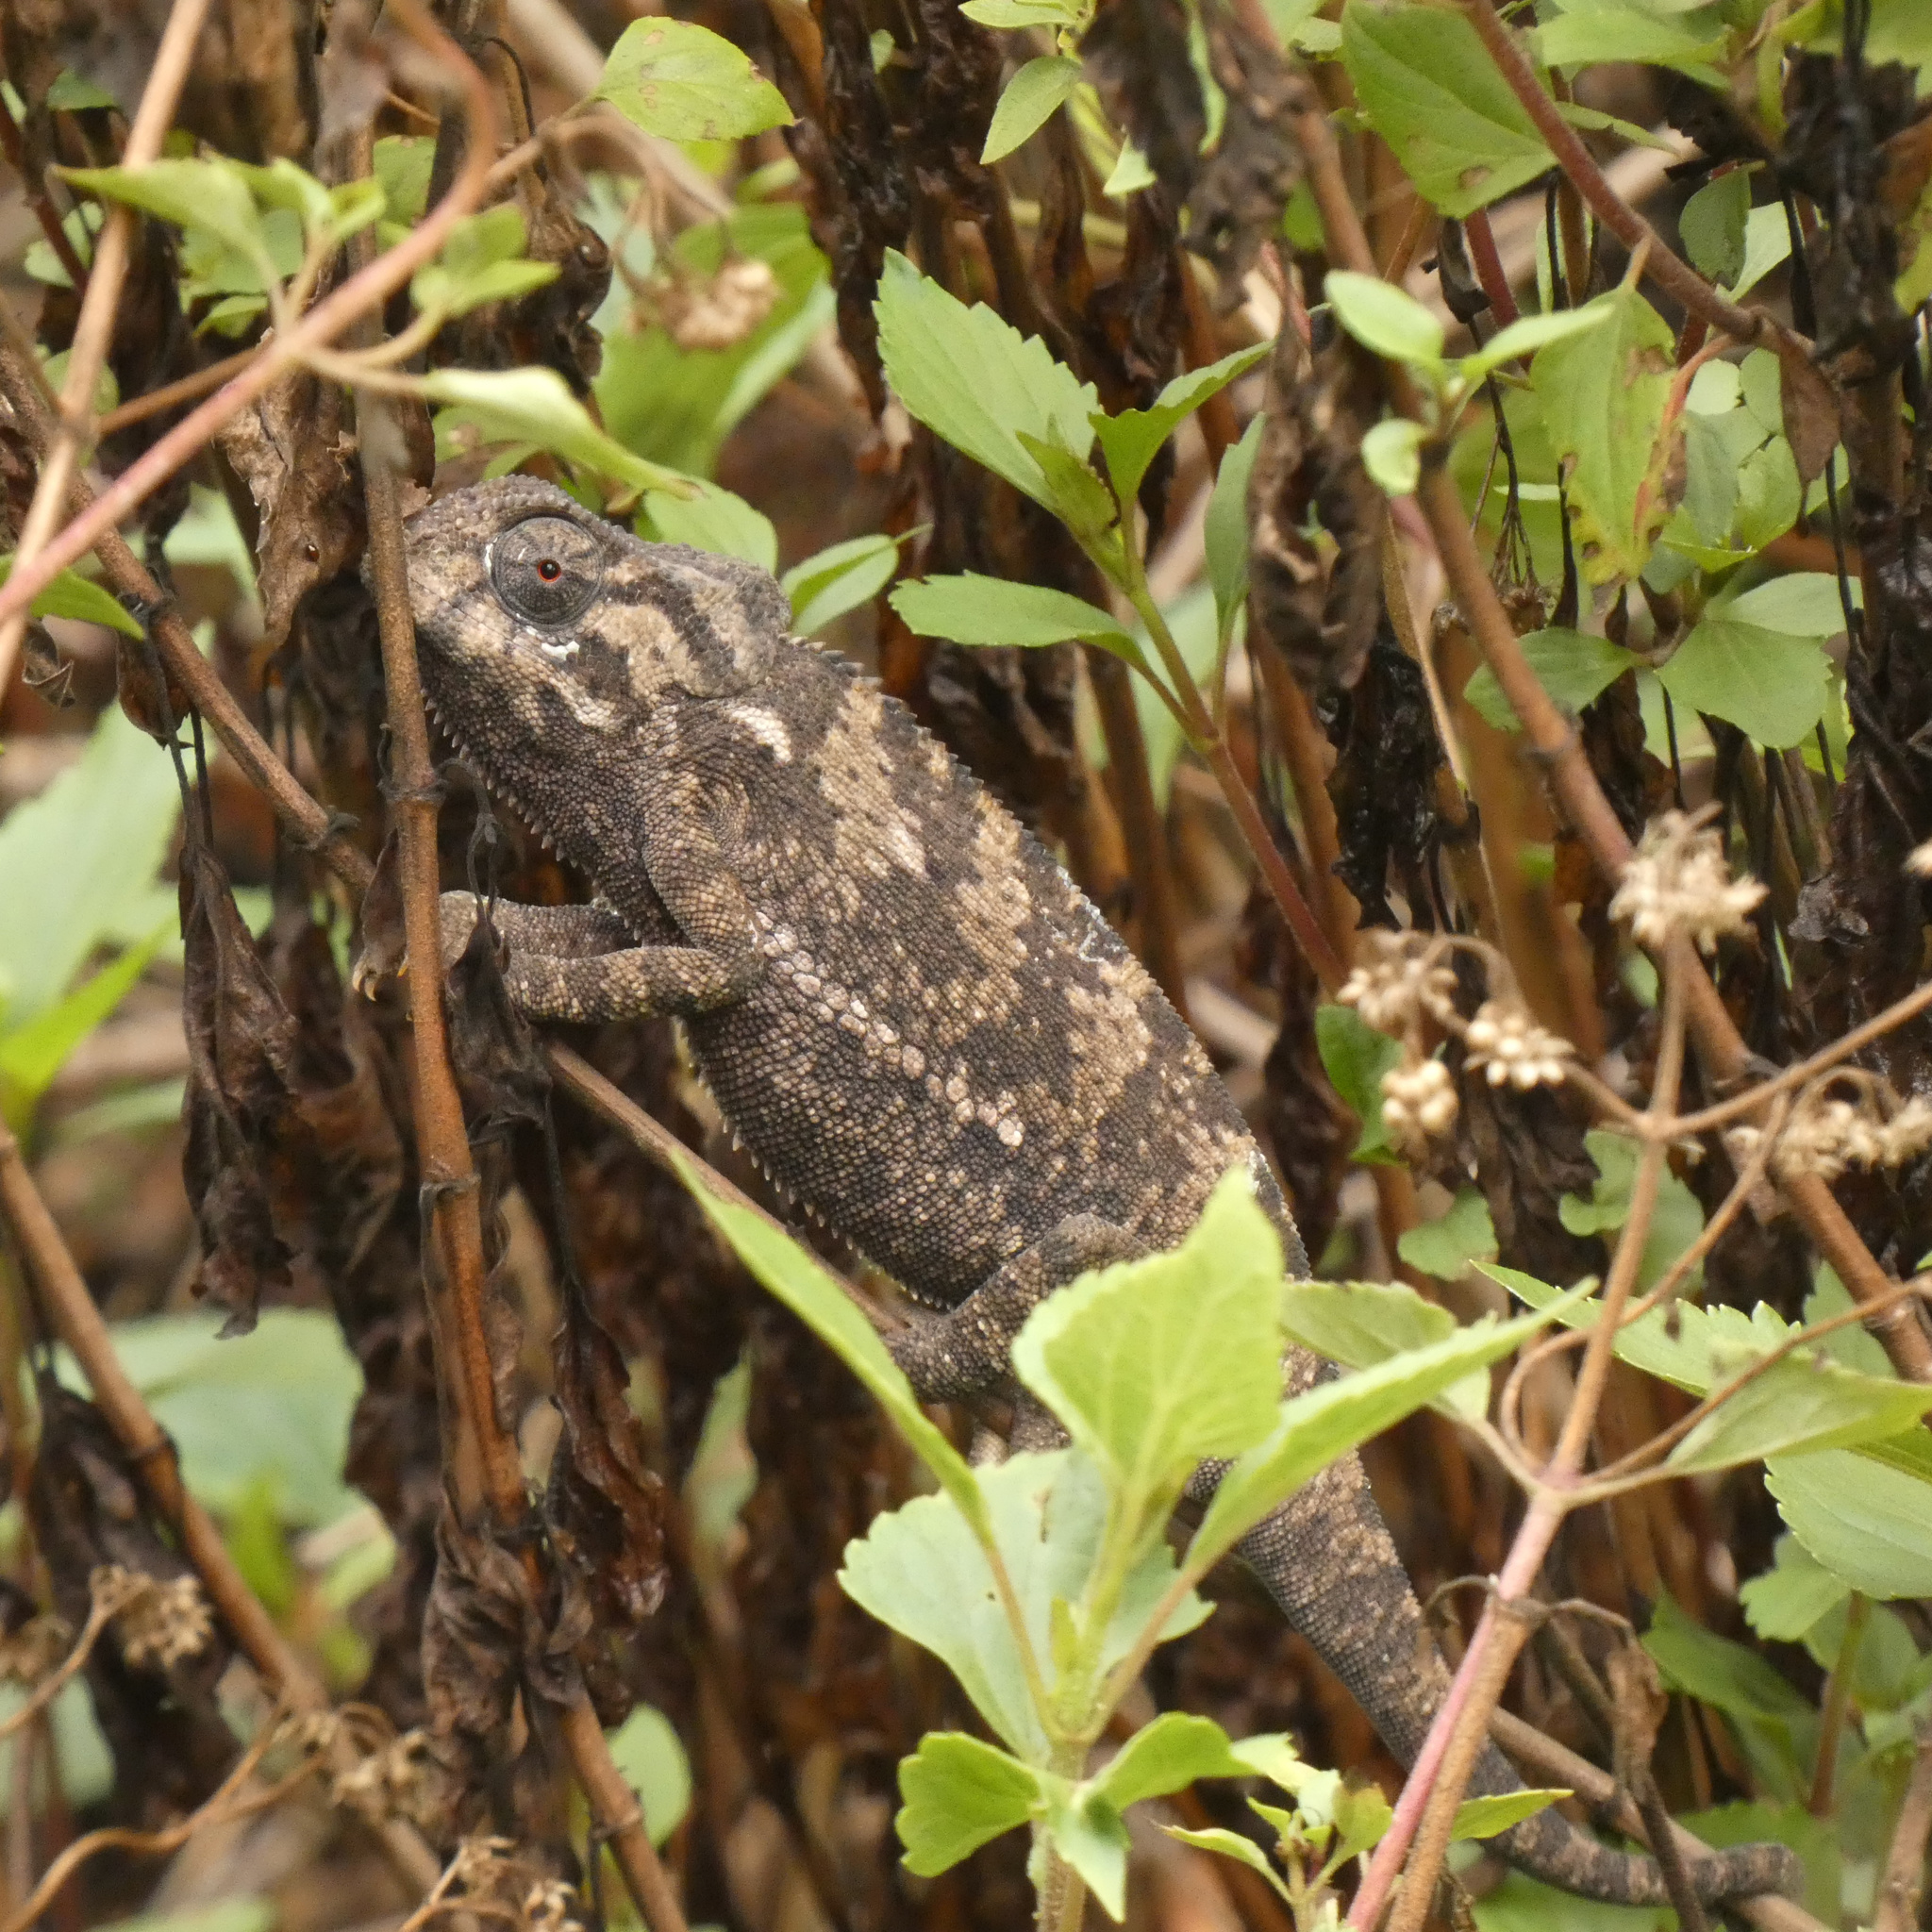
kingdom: Animalia
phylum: Chordata
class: Squamata
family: Chamaeleonidae
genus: Chamaeleo
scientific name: Chamaeleo dilepis
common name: Flapneck chameleon
